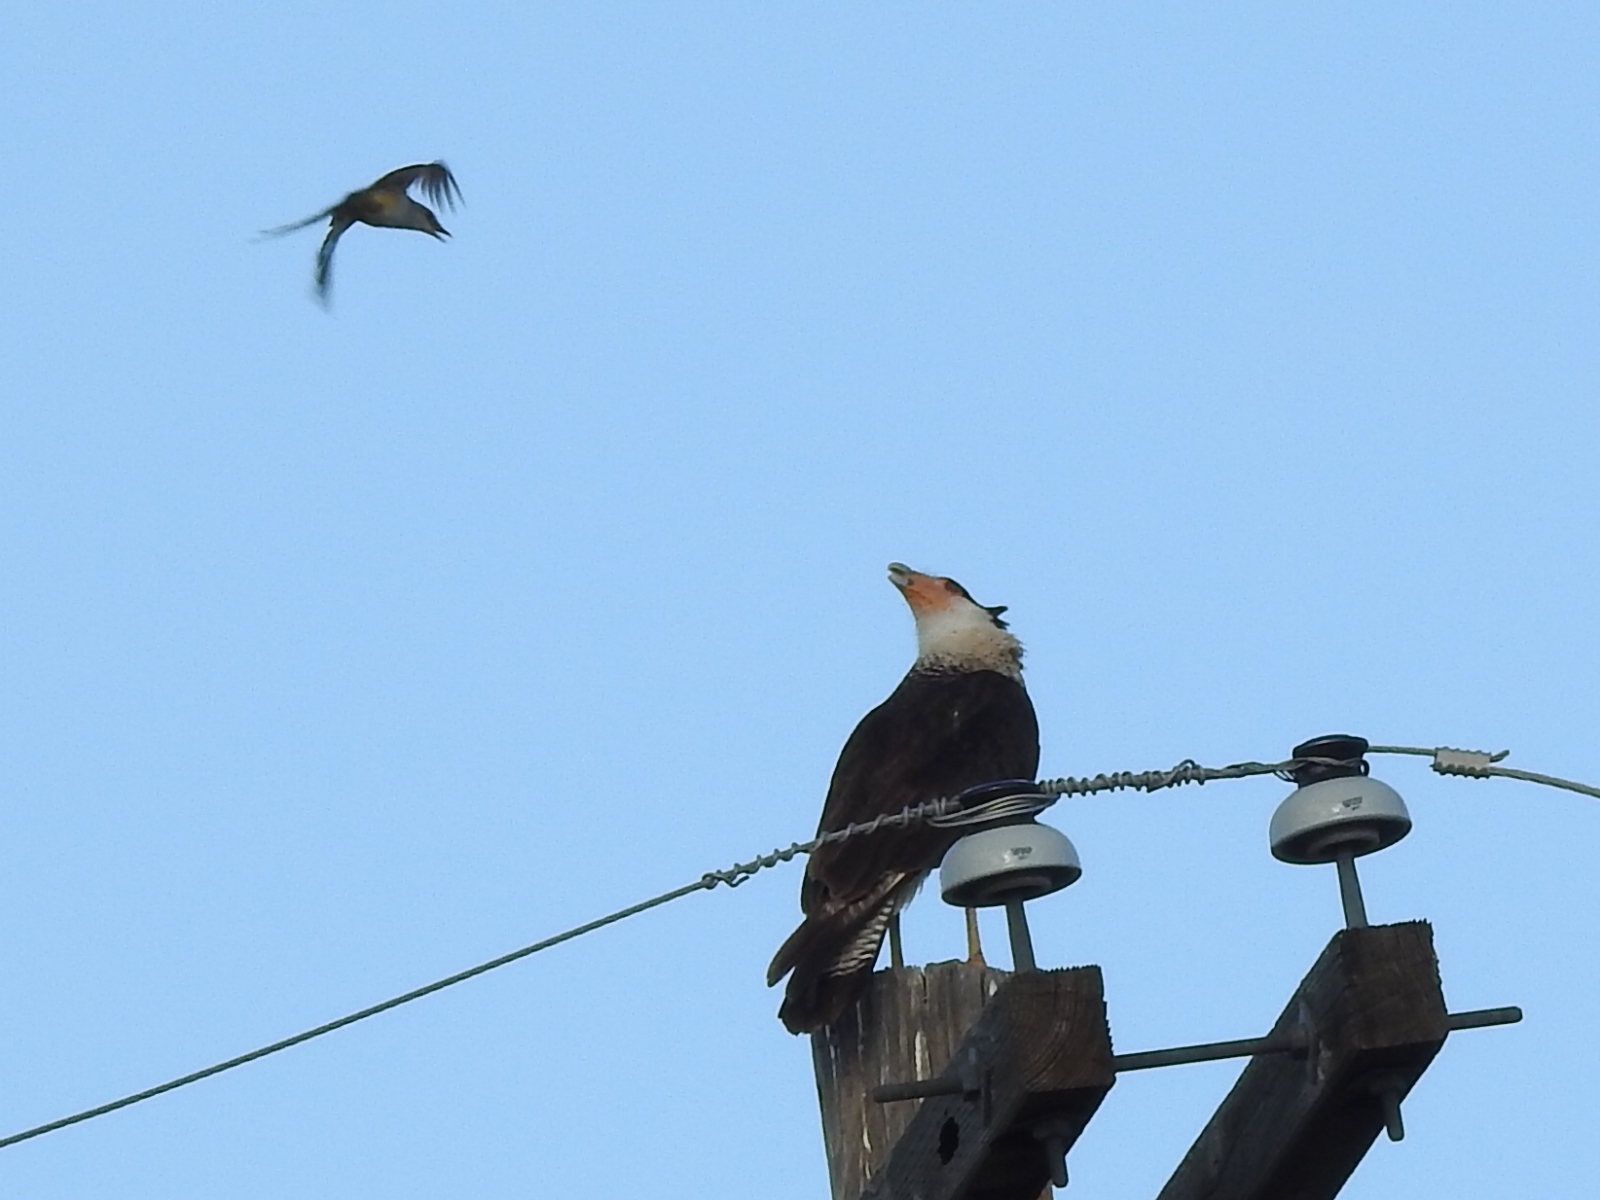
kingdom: Animalia
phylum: Chordata
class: Aves
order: Falconiformes
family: Falconidae
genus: Caracara
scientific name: Caracara plancus
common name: Southern caracara
